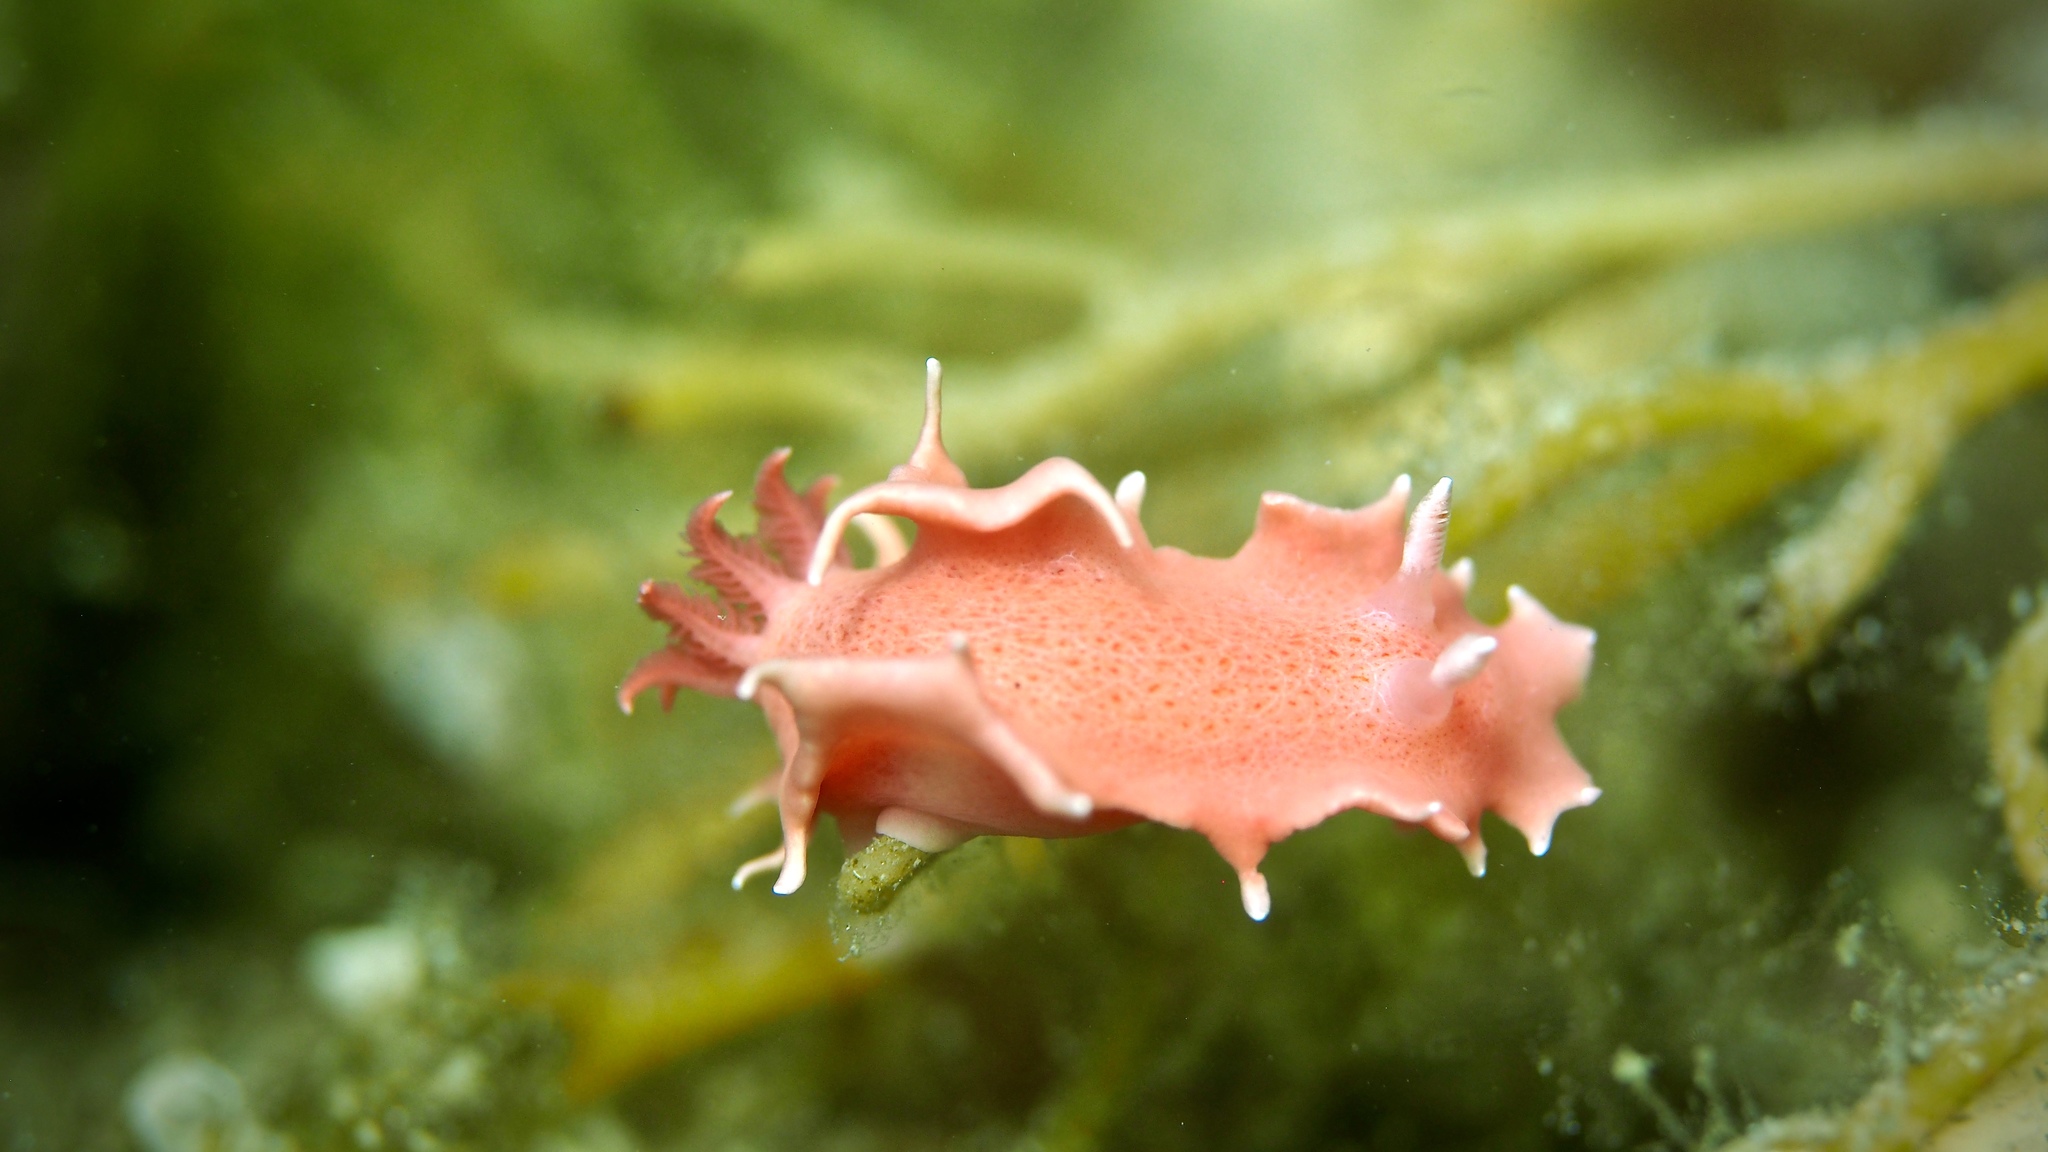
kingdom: Animalia
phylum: Mollusca
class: Gastropoda
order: Nudibranchia
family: Chromodorididae
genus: Verconia
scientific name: Verconia verconis
